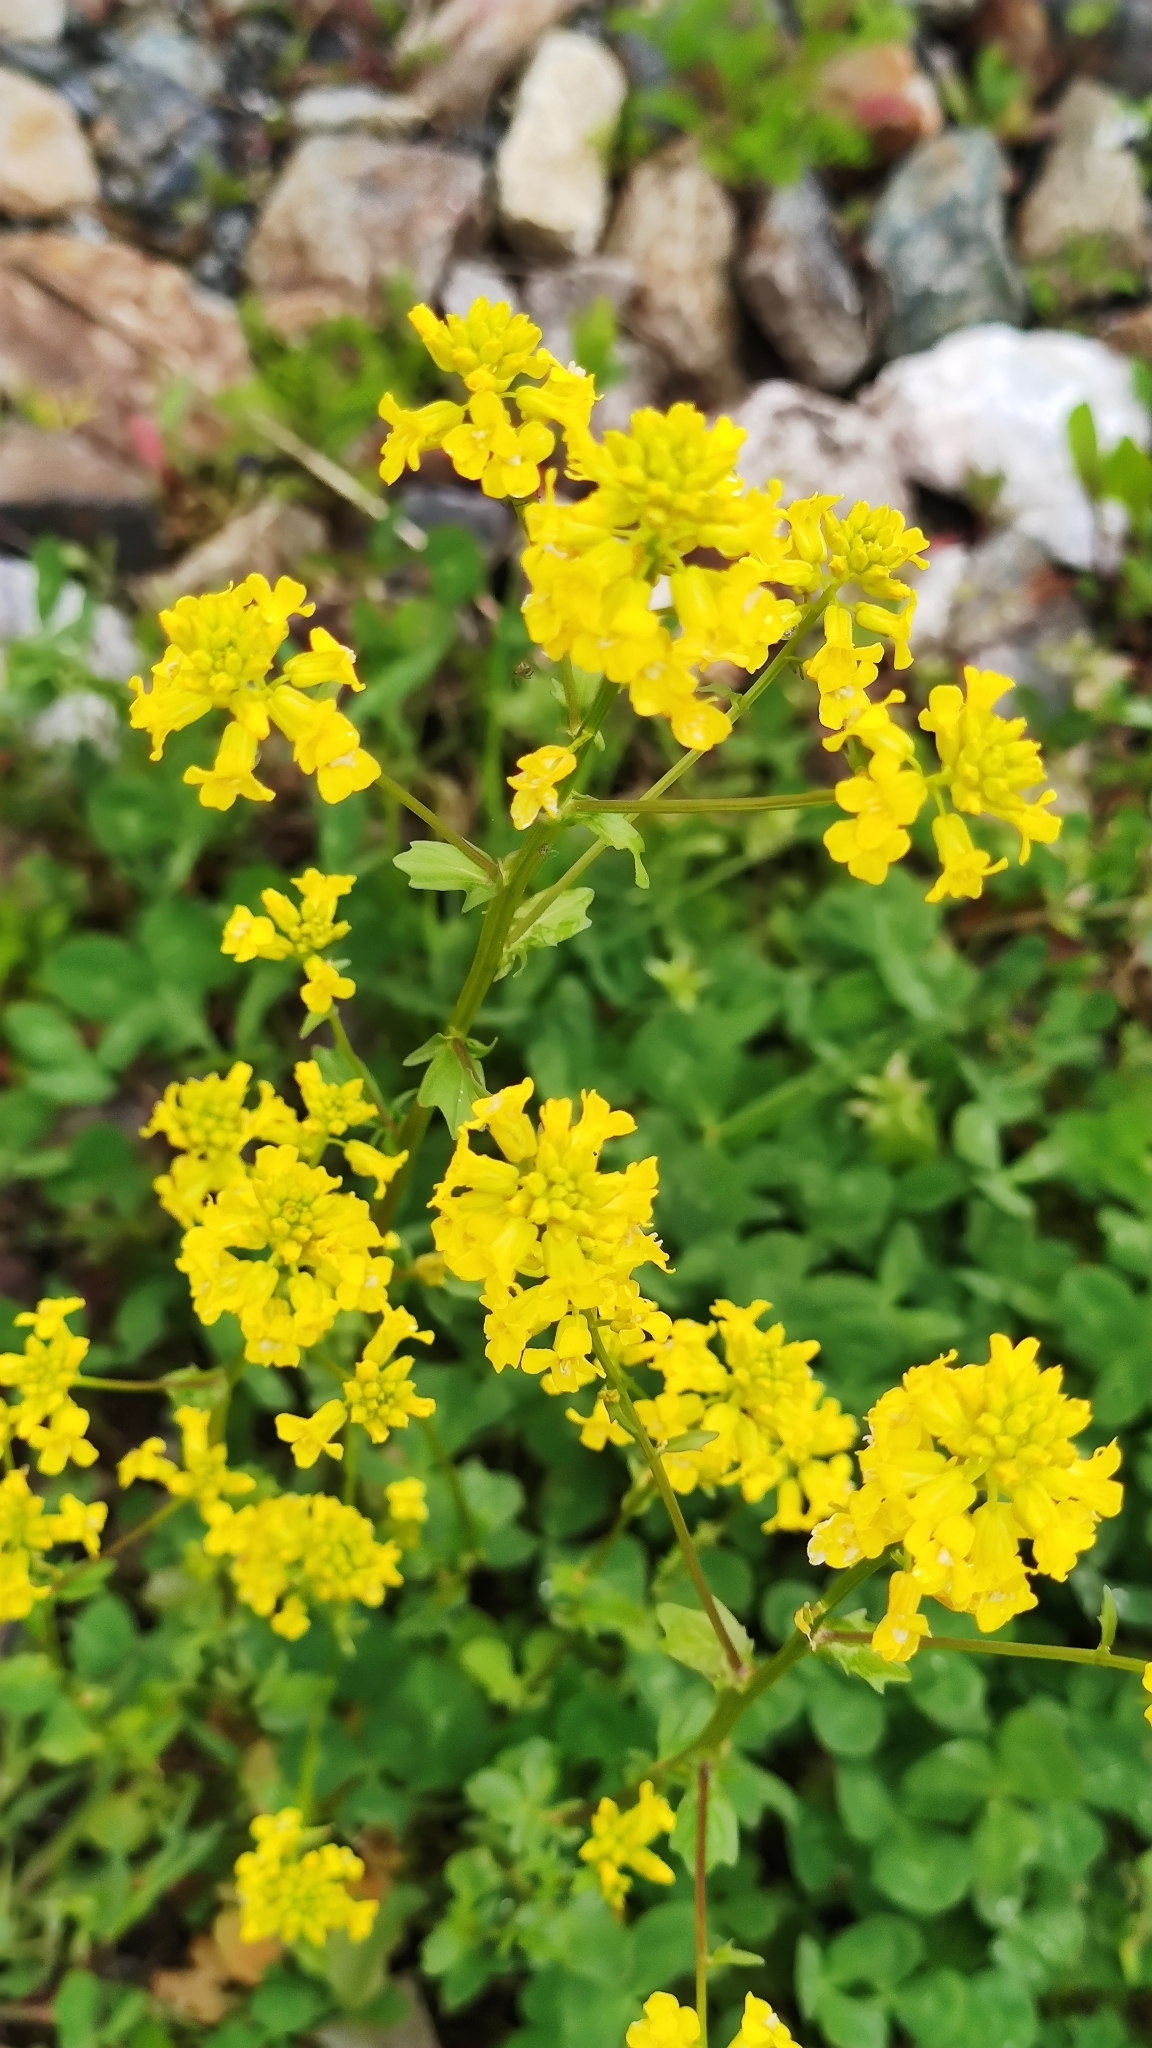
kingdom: Plantae
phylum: Tracheophyta
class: Magnoliopsida
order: Brassicales
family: Brassicaceae
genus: Barbarea
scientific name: Barbarea vulgaris
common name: Cressy-greens
